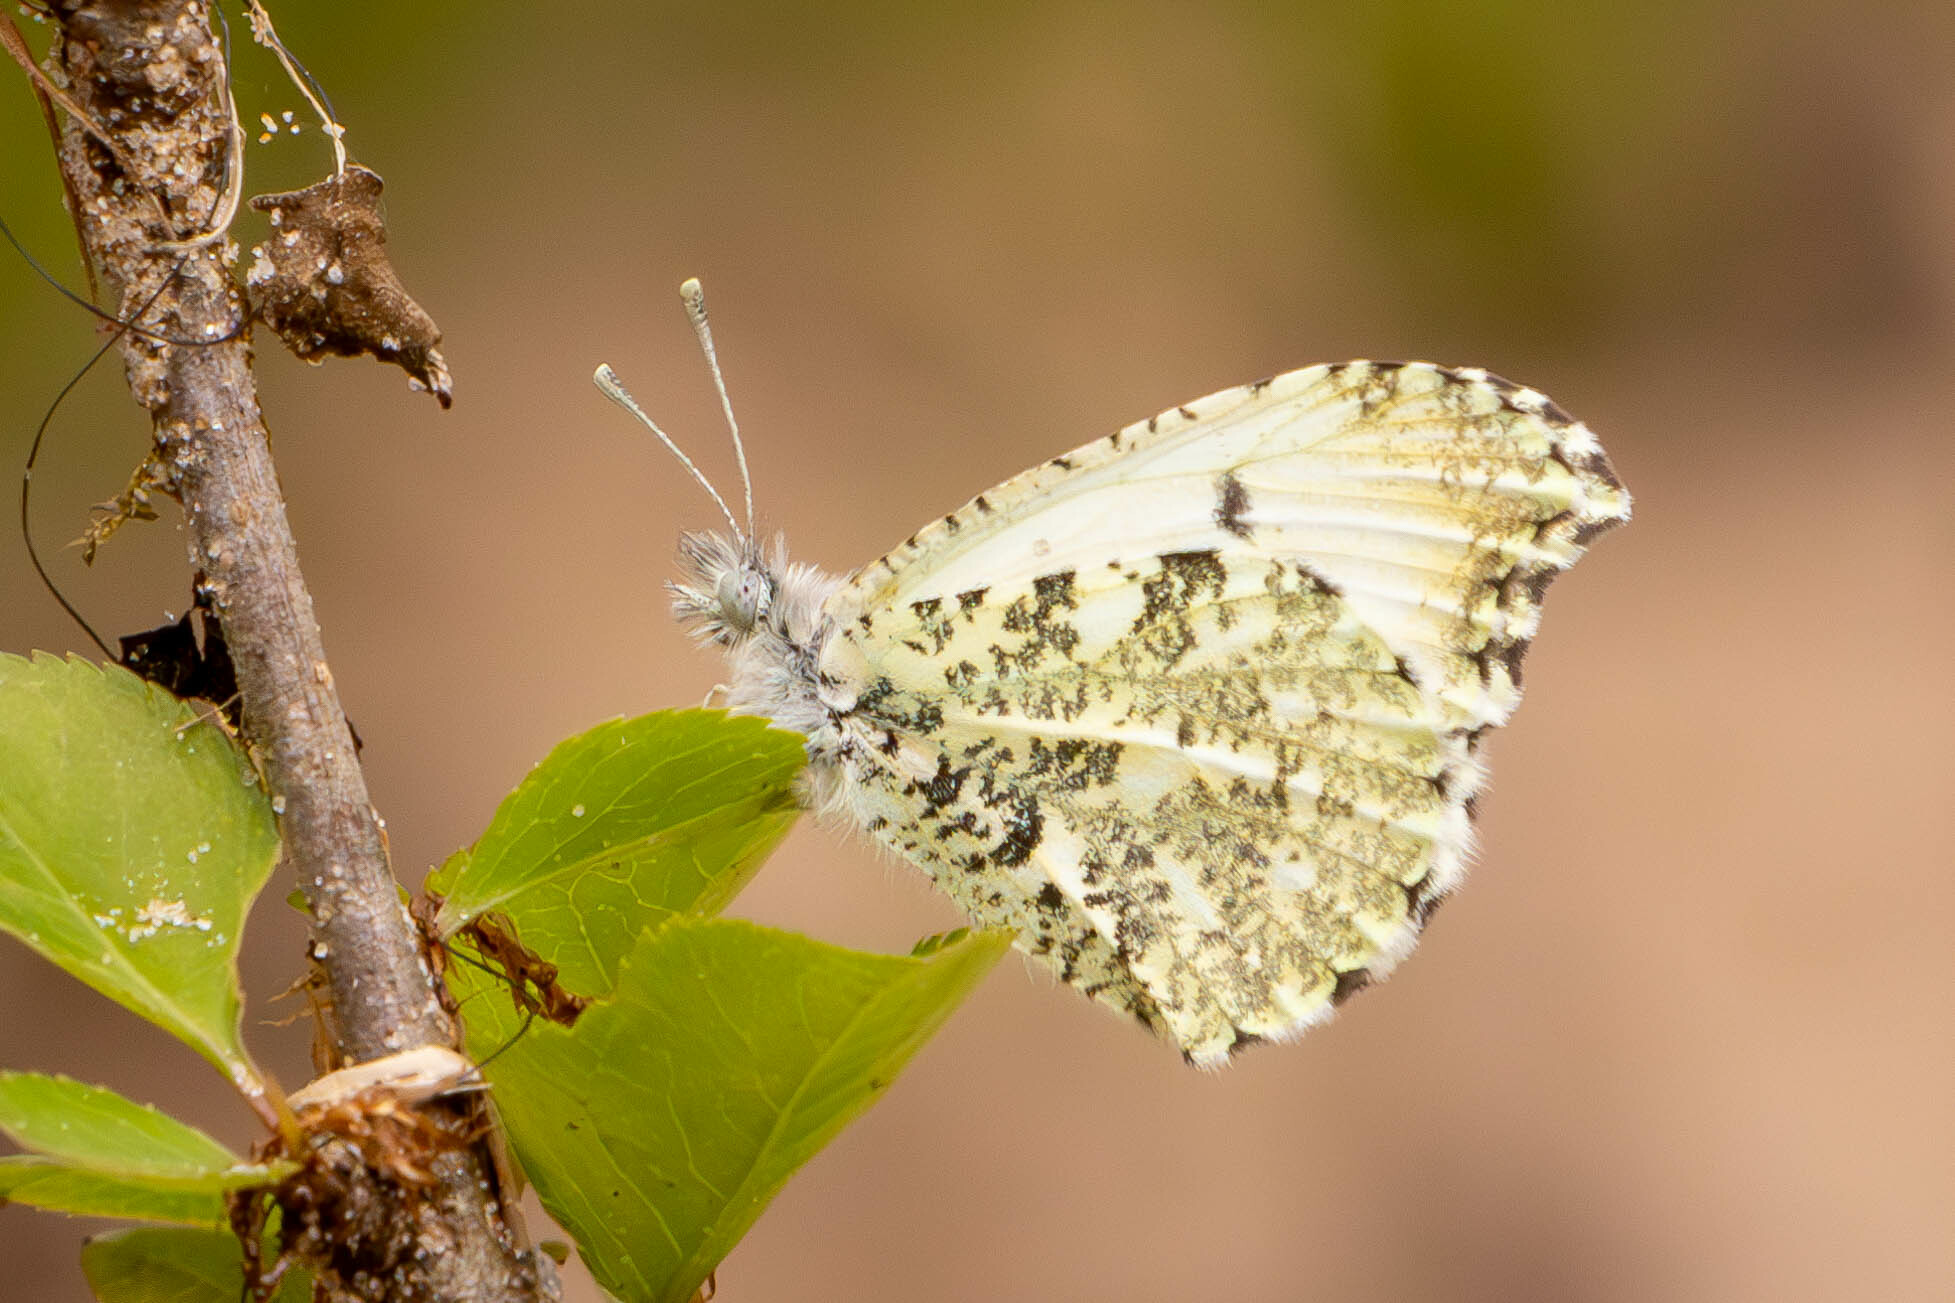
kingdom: Animalia
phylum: Arthropoda
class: Insecta
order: Lepidoptera
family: Pieridae
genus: Anthocharis
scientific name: Anthocharis midea
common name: Falcate orangetip
